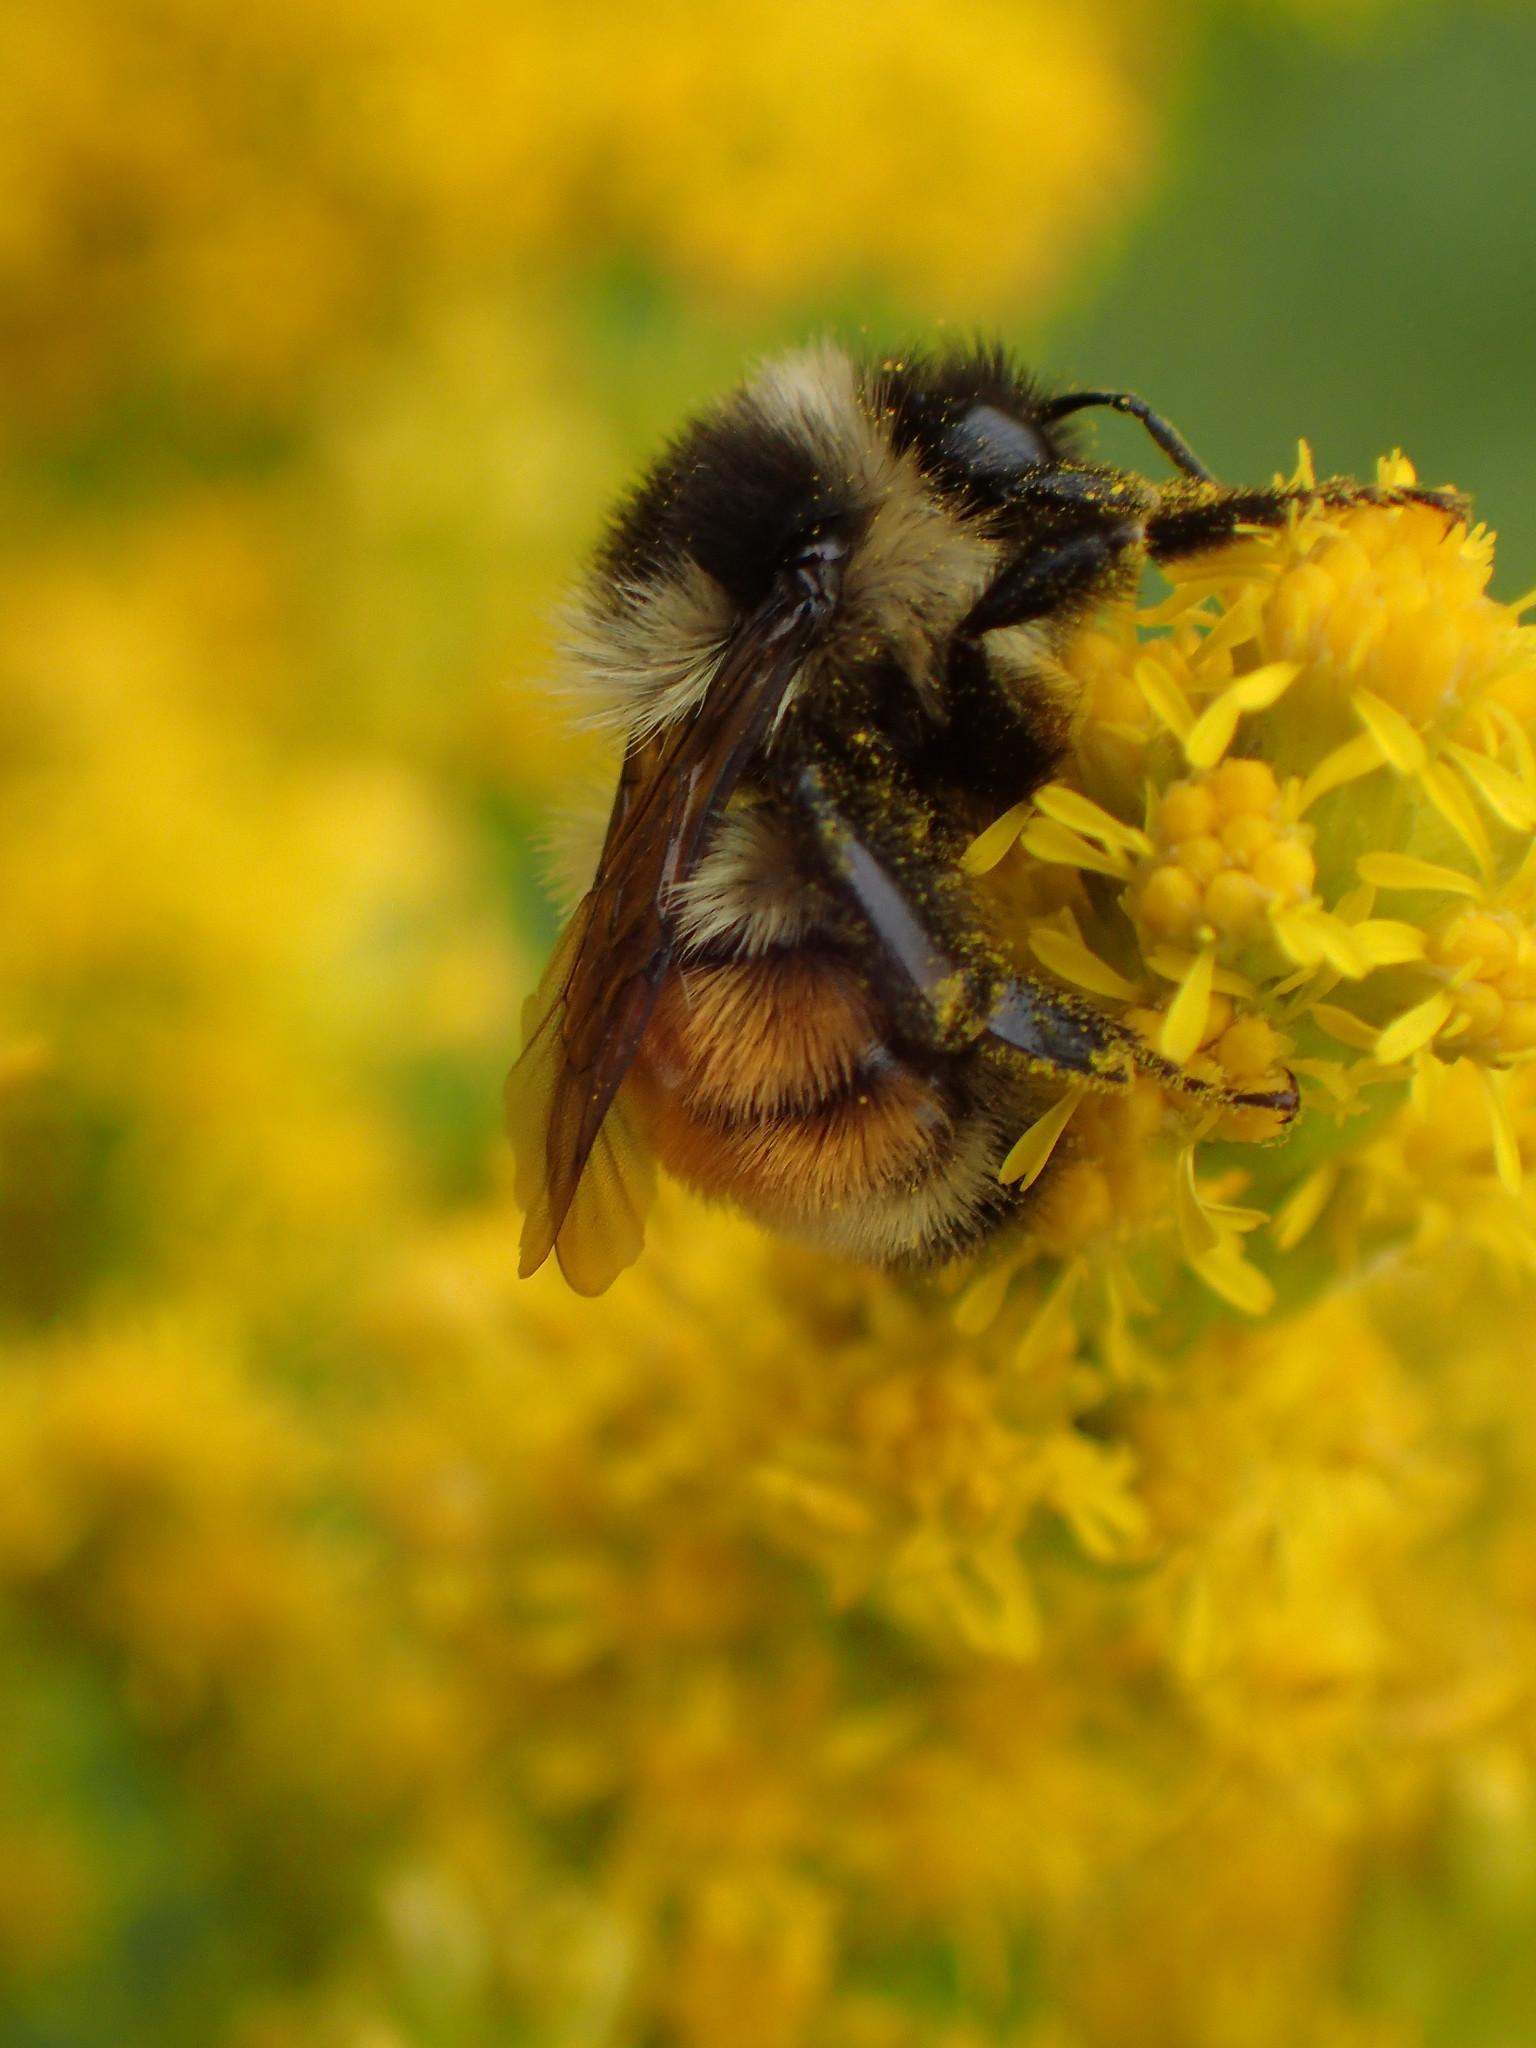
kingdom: Animalia
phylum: Arthropoda
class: Insecta
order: Hymenoptera
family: Apidae
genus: Bombus
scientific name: Bombus ternarius
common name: Tri-colored bumble bee
